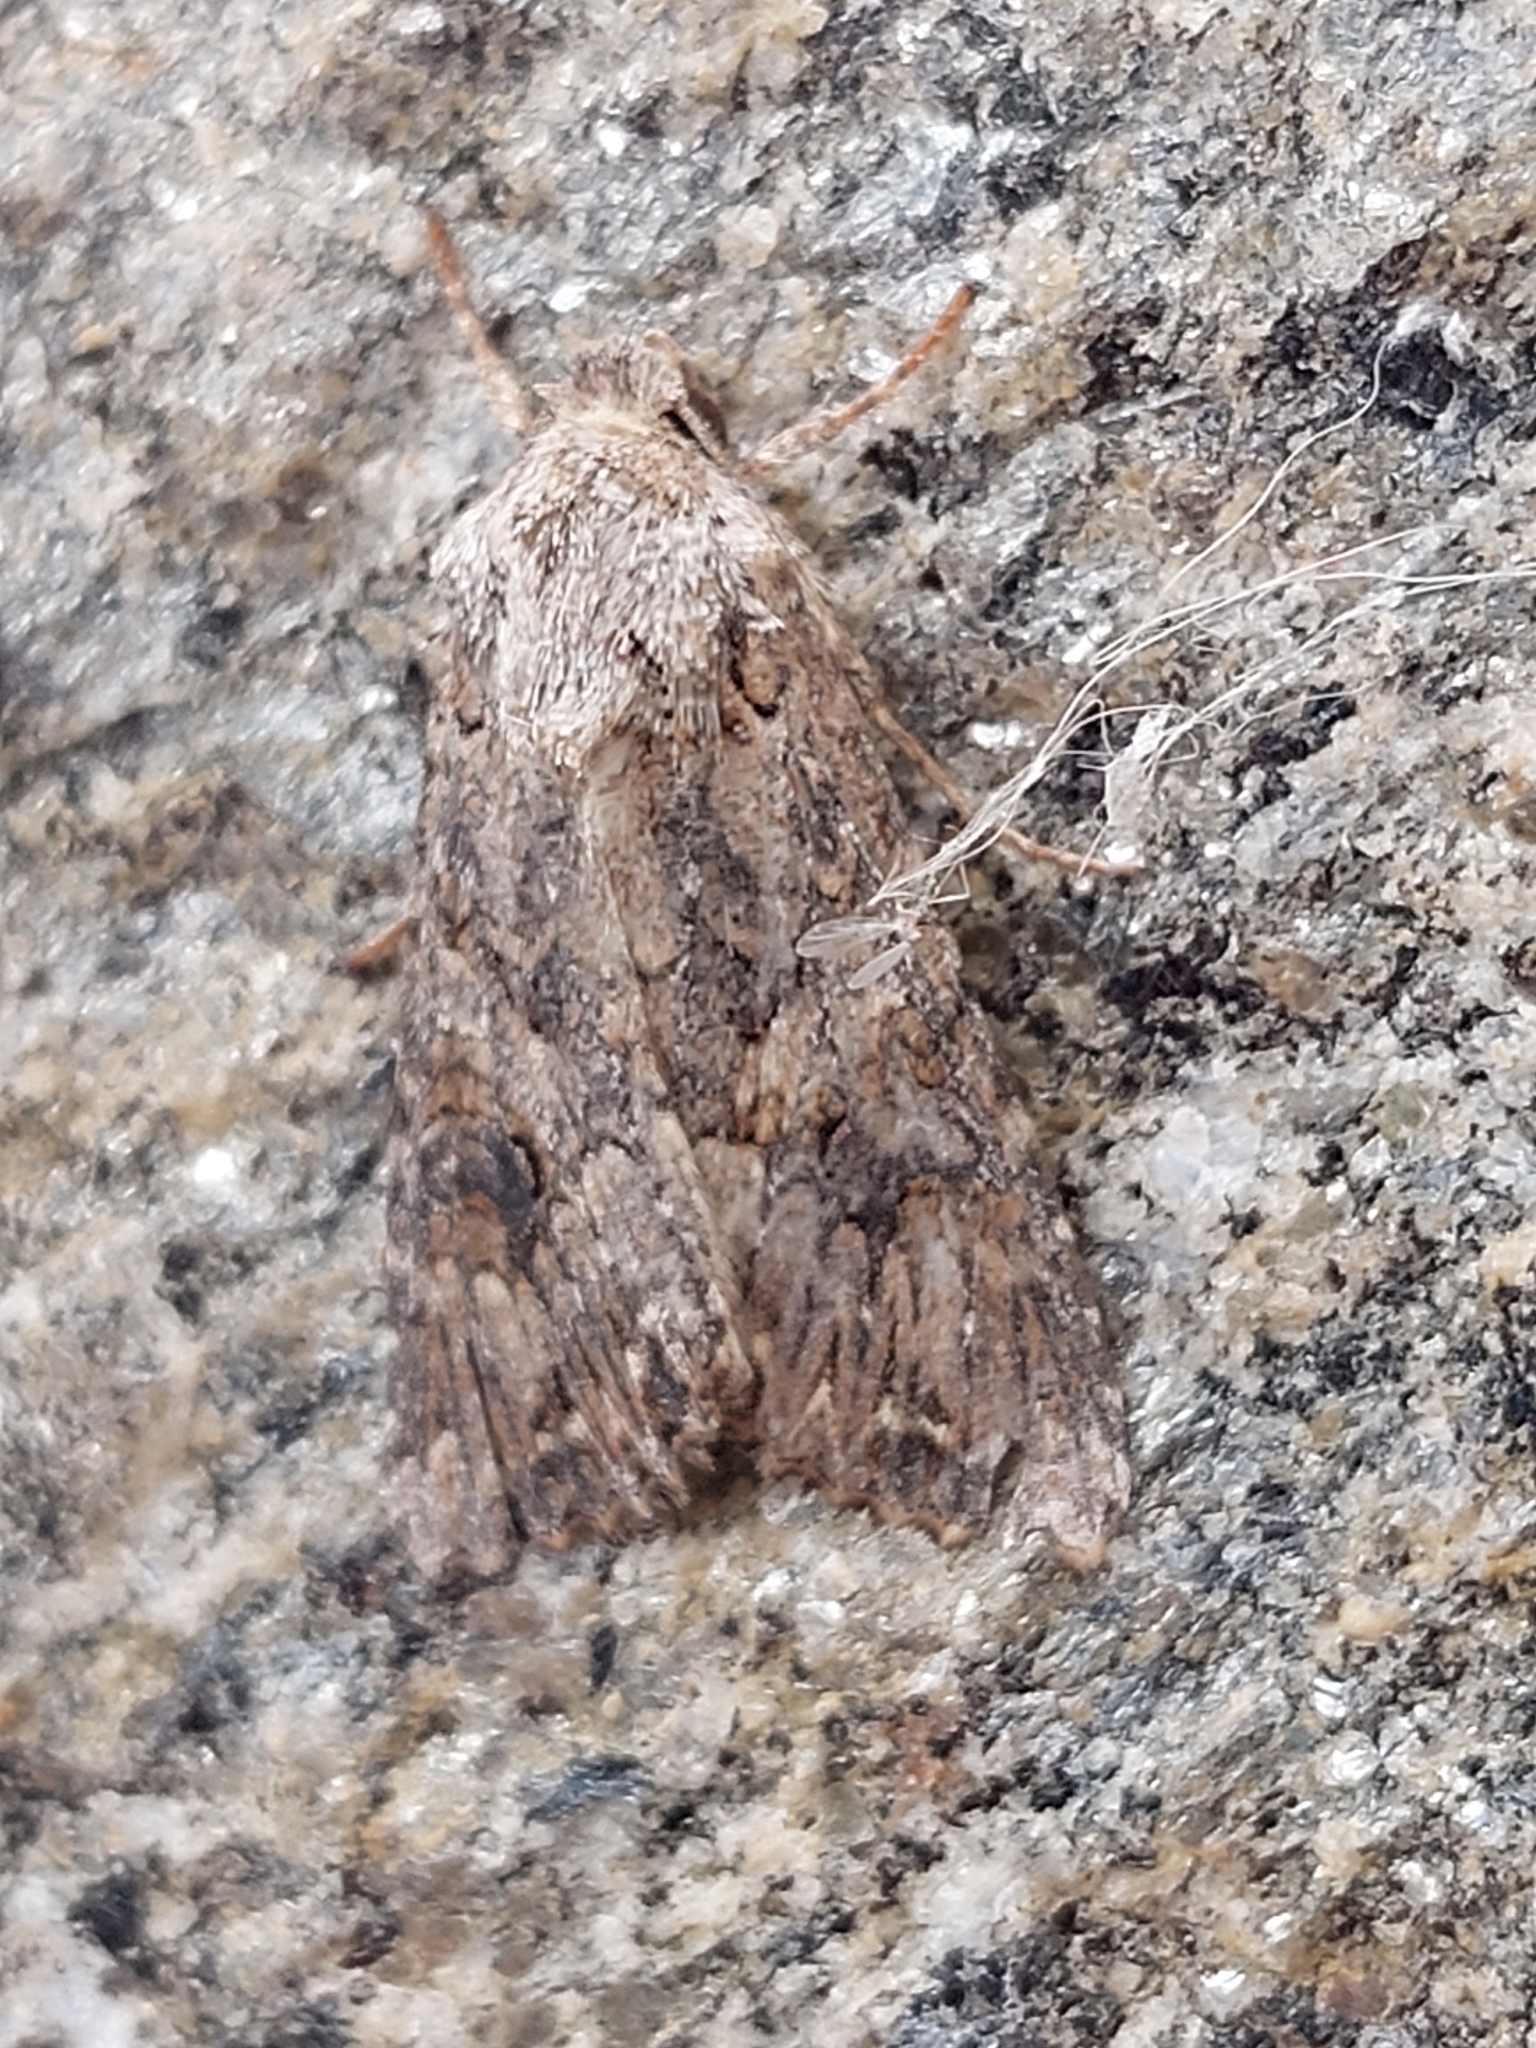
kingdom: Animalia
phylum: Arthropoda
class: Insecta
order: Lepidoptera
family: Noctuidae
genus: Anarta
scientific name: Anarta trifolii
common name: Clover cutworm moth
